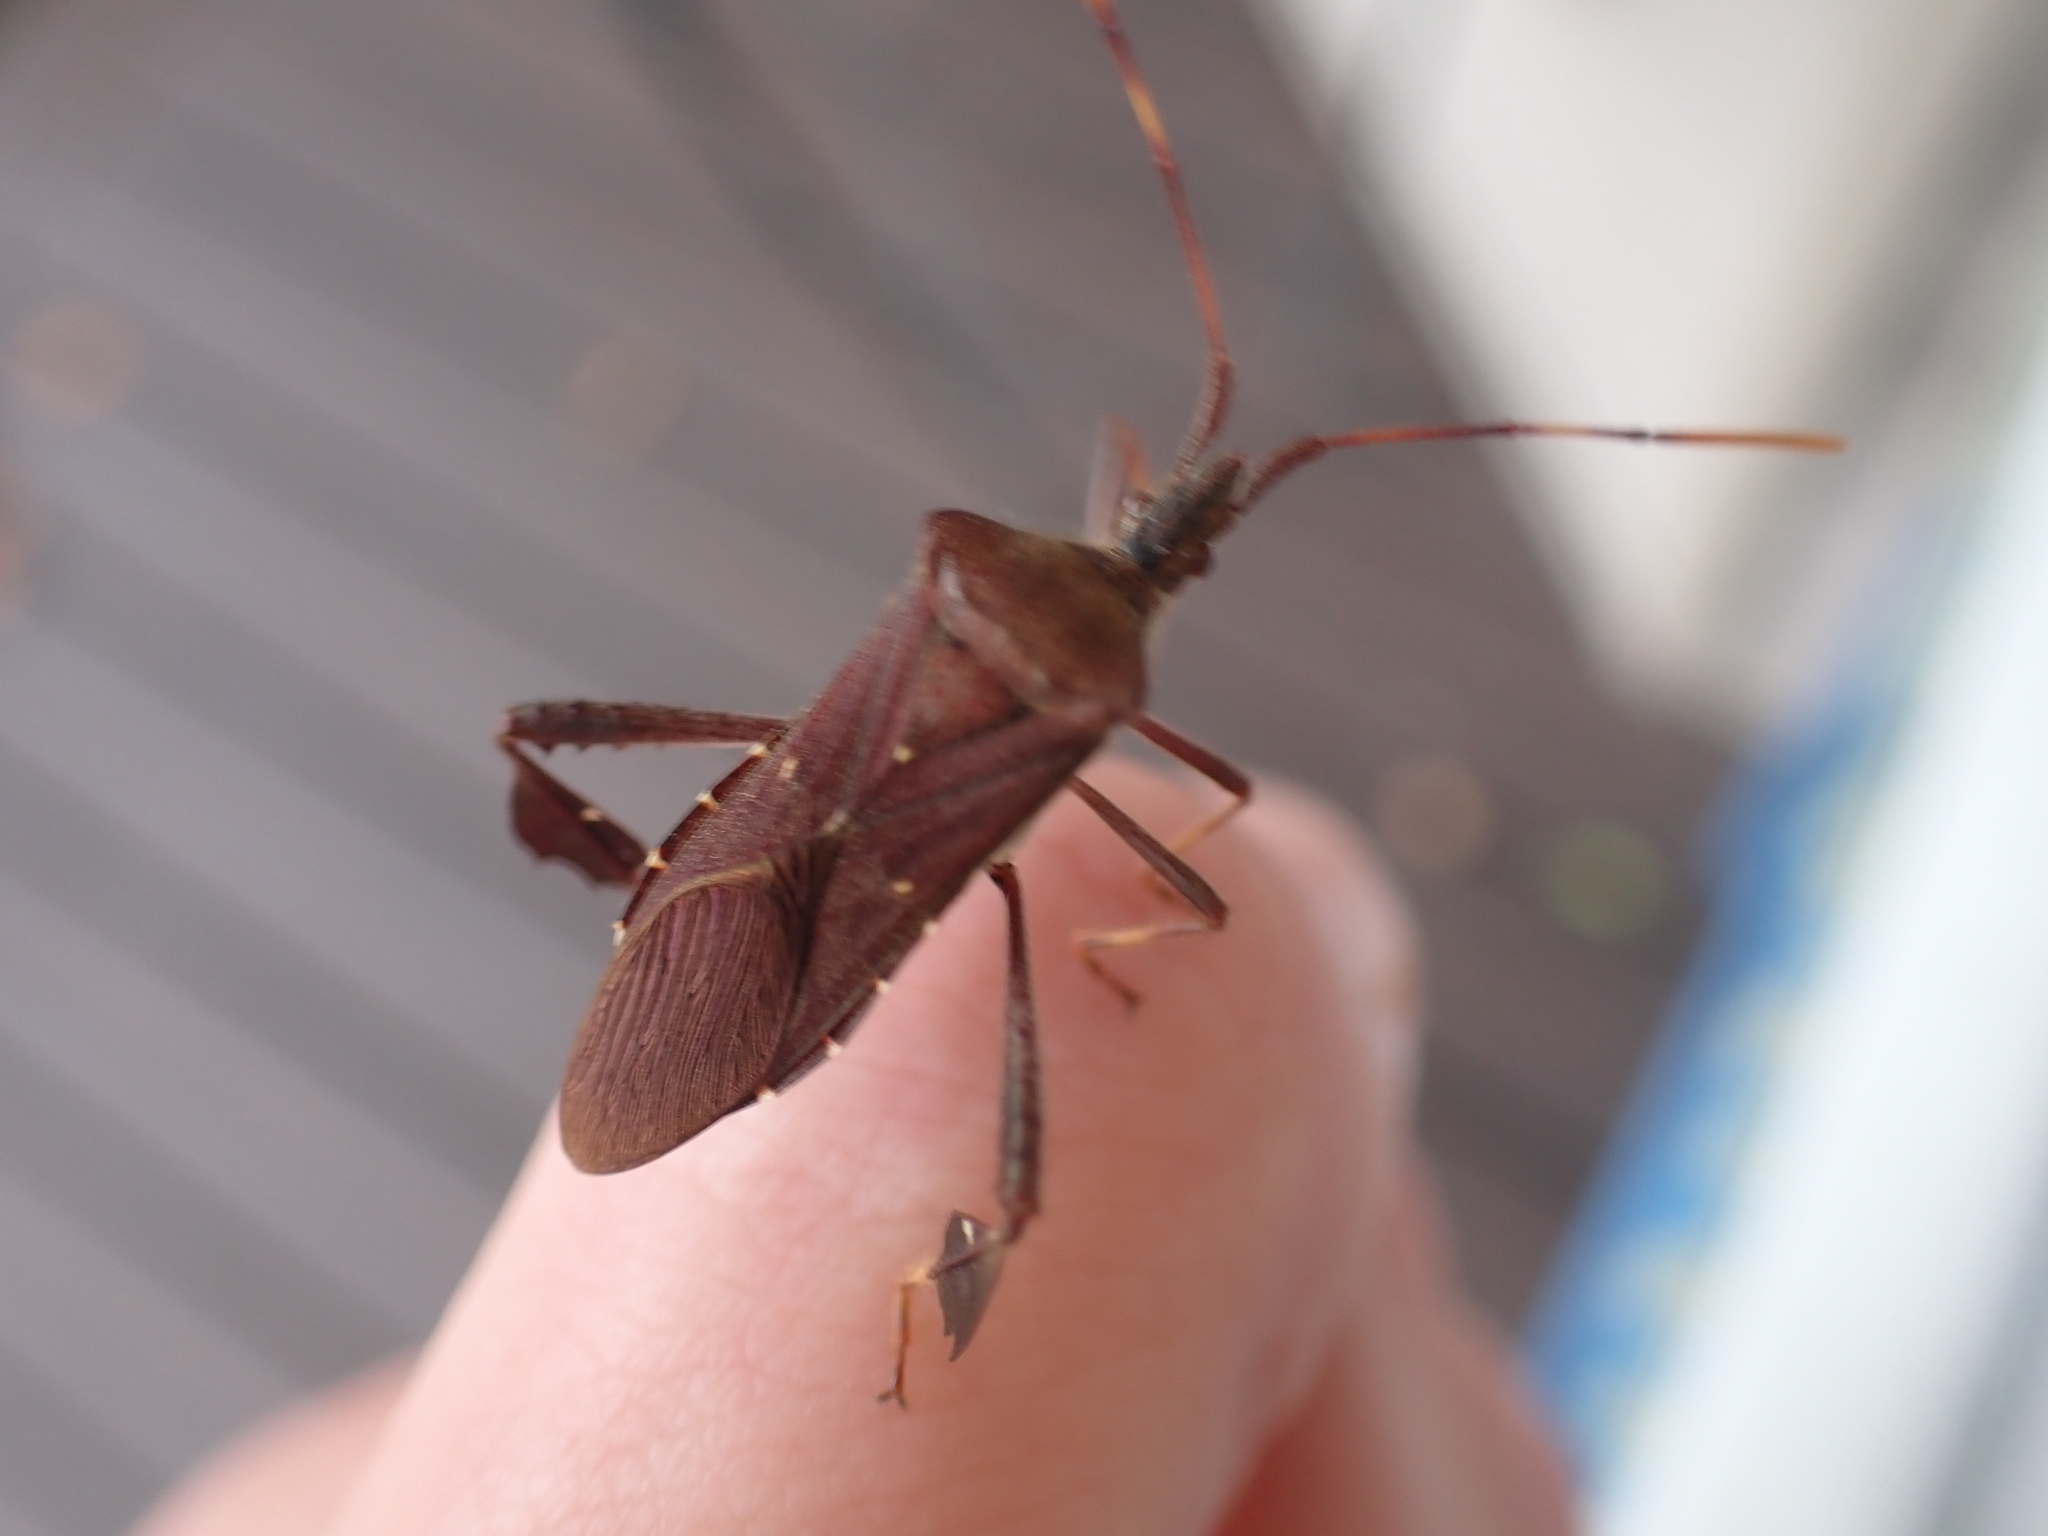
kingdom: Animalia
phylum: Arthropoda
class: Insecta
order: Hemiptera
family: Coreidae
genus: Leptoglossus
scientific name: Leptoglossus oppositus
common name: Northern leaf-footed bug
